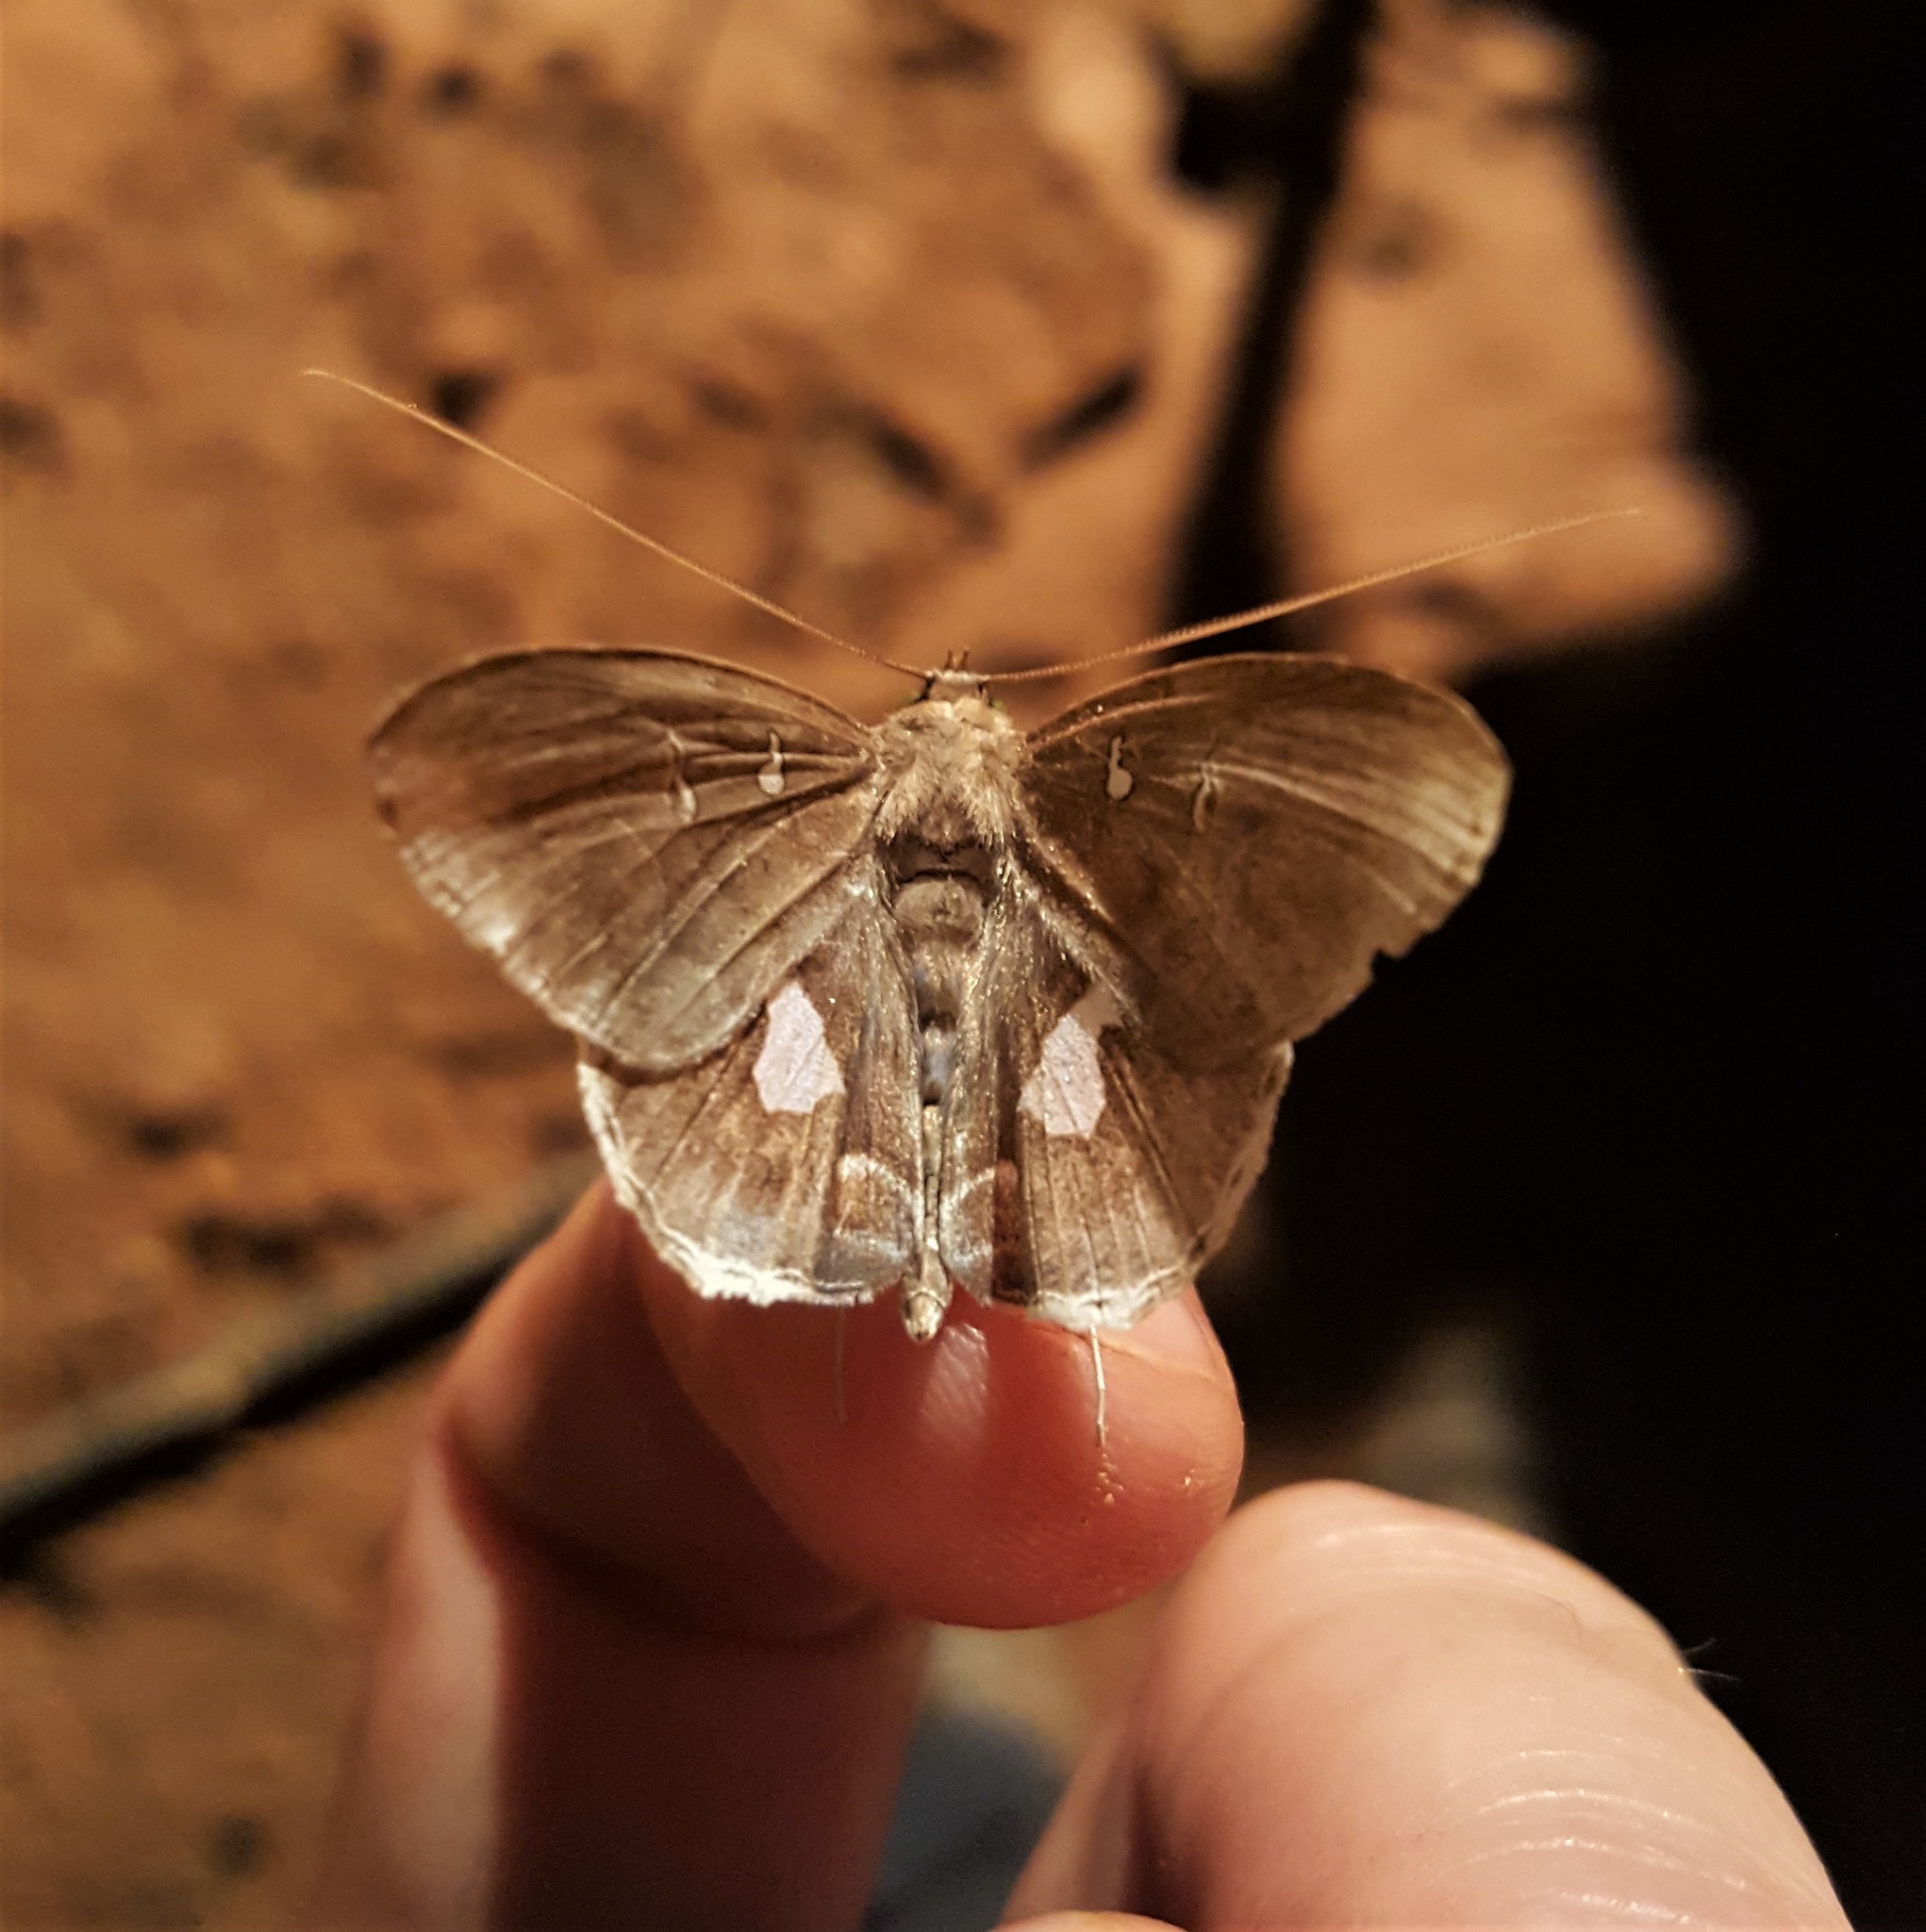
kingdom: Animalia
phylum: Arthropoda
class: Insecta
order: Lepidoptera
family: Erebidae
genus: Macrodes
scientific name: Macrodes cynara
